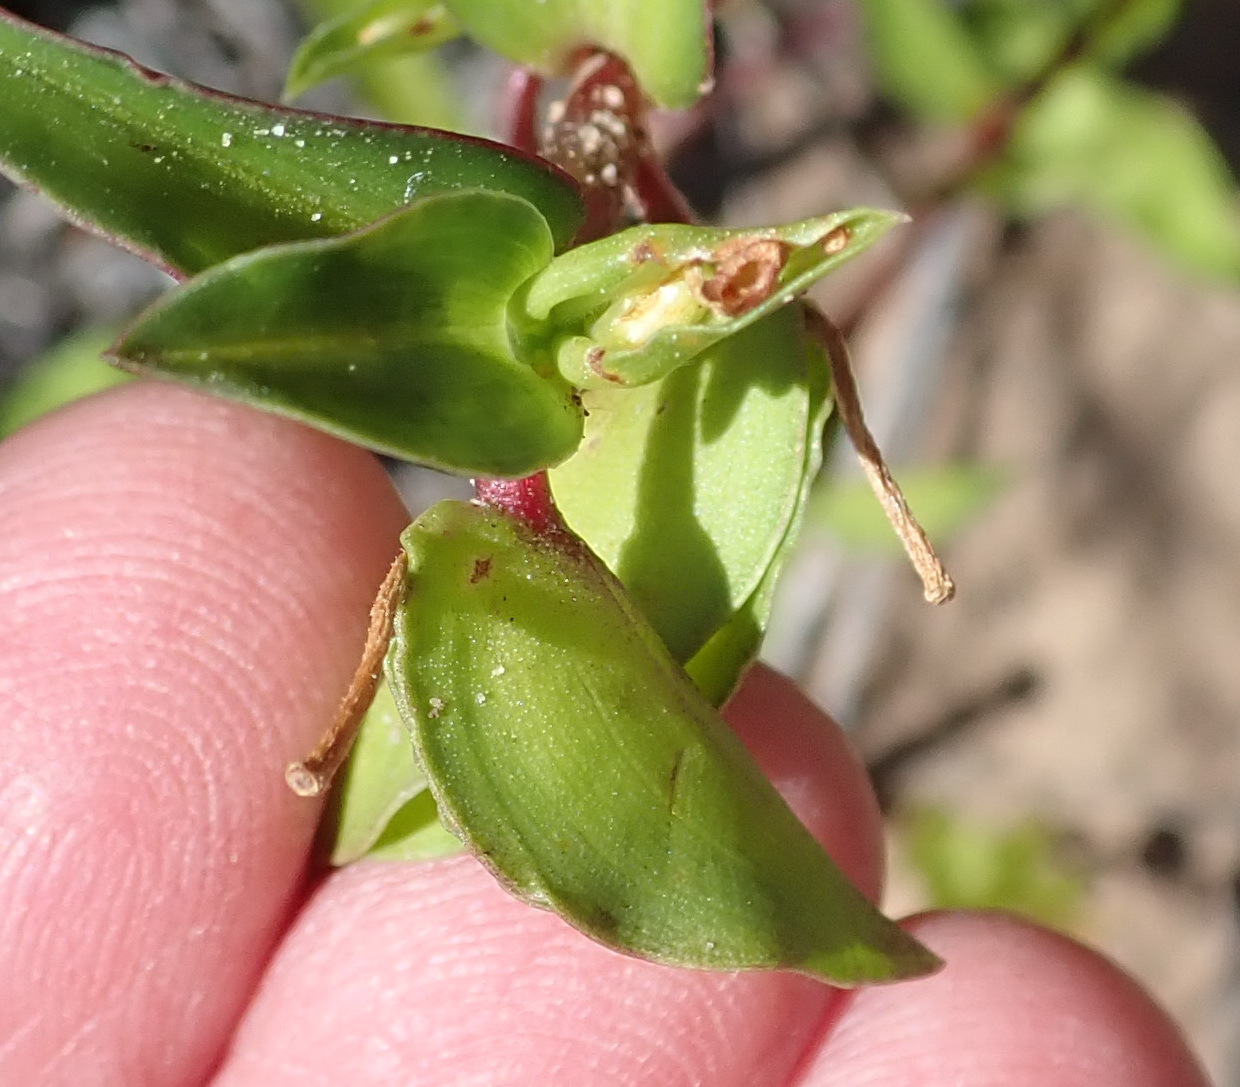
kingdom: Plantae
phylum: Tracheophyta
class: Liliopsida
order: Commelinales
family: Commelinaceae
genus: Commelina
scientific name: Commelina africana
